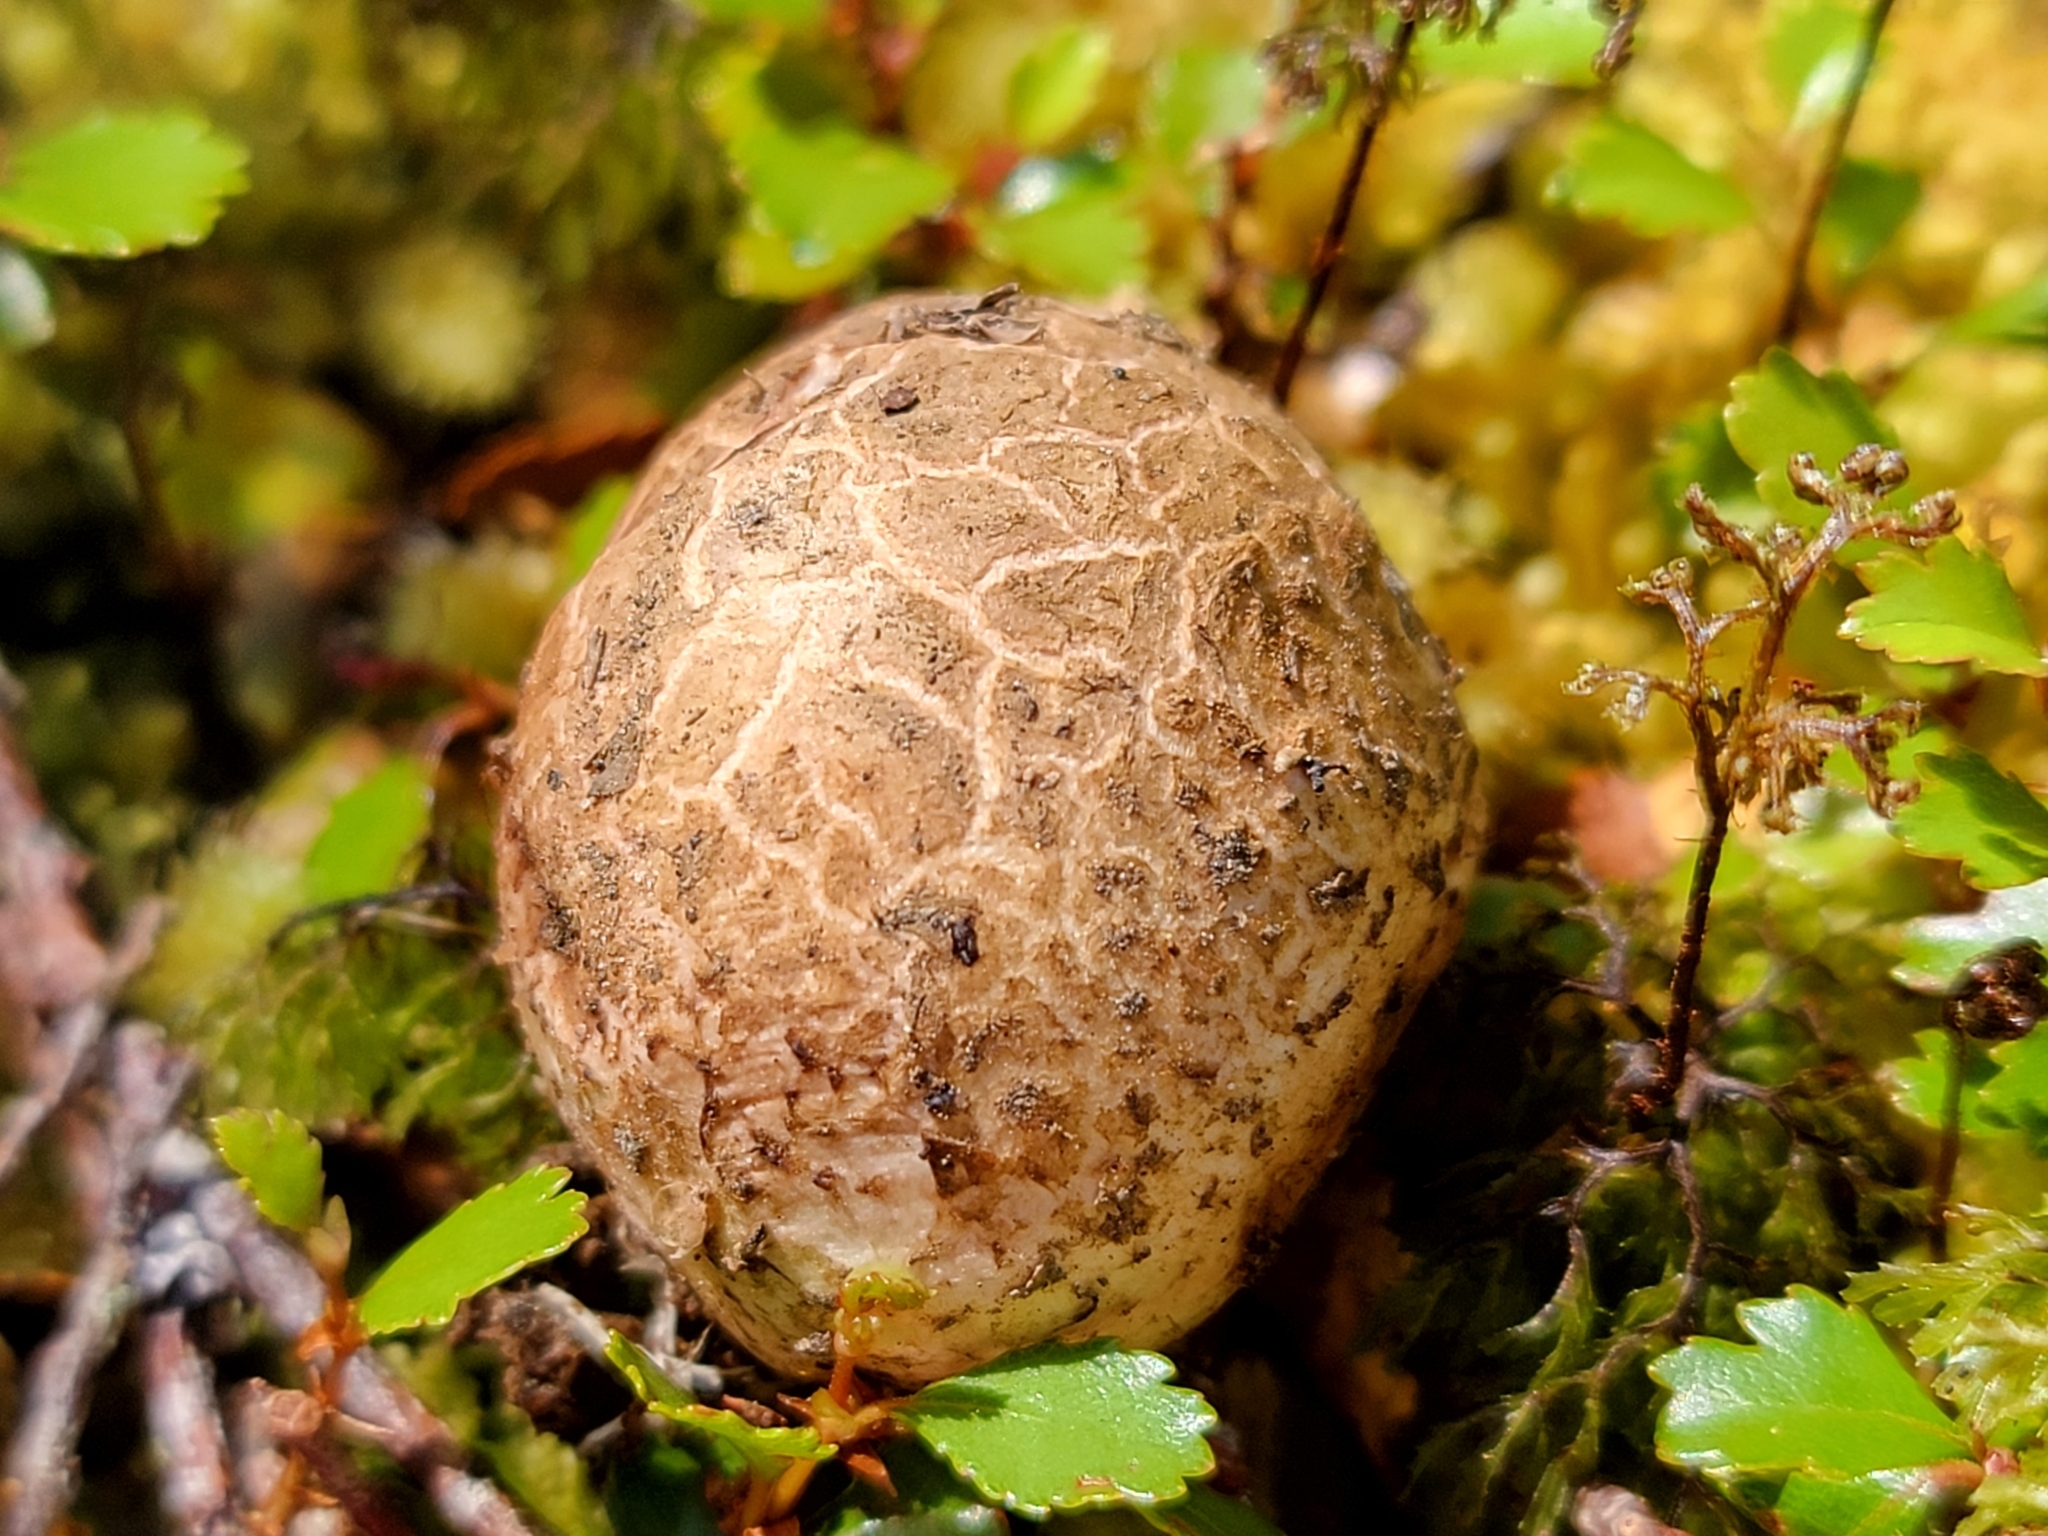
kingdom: Fungi
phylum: Basidiomycota
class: Agaricomycetes
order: Boletales
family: Boletaceae
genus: Octaviania
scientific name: Octaviania tasmanica
